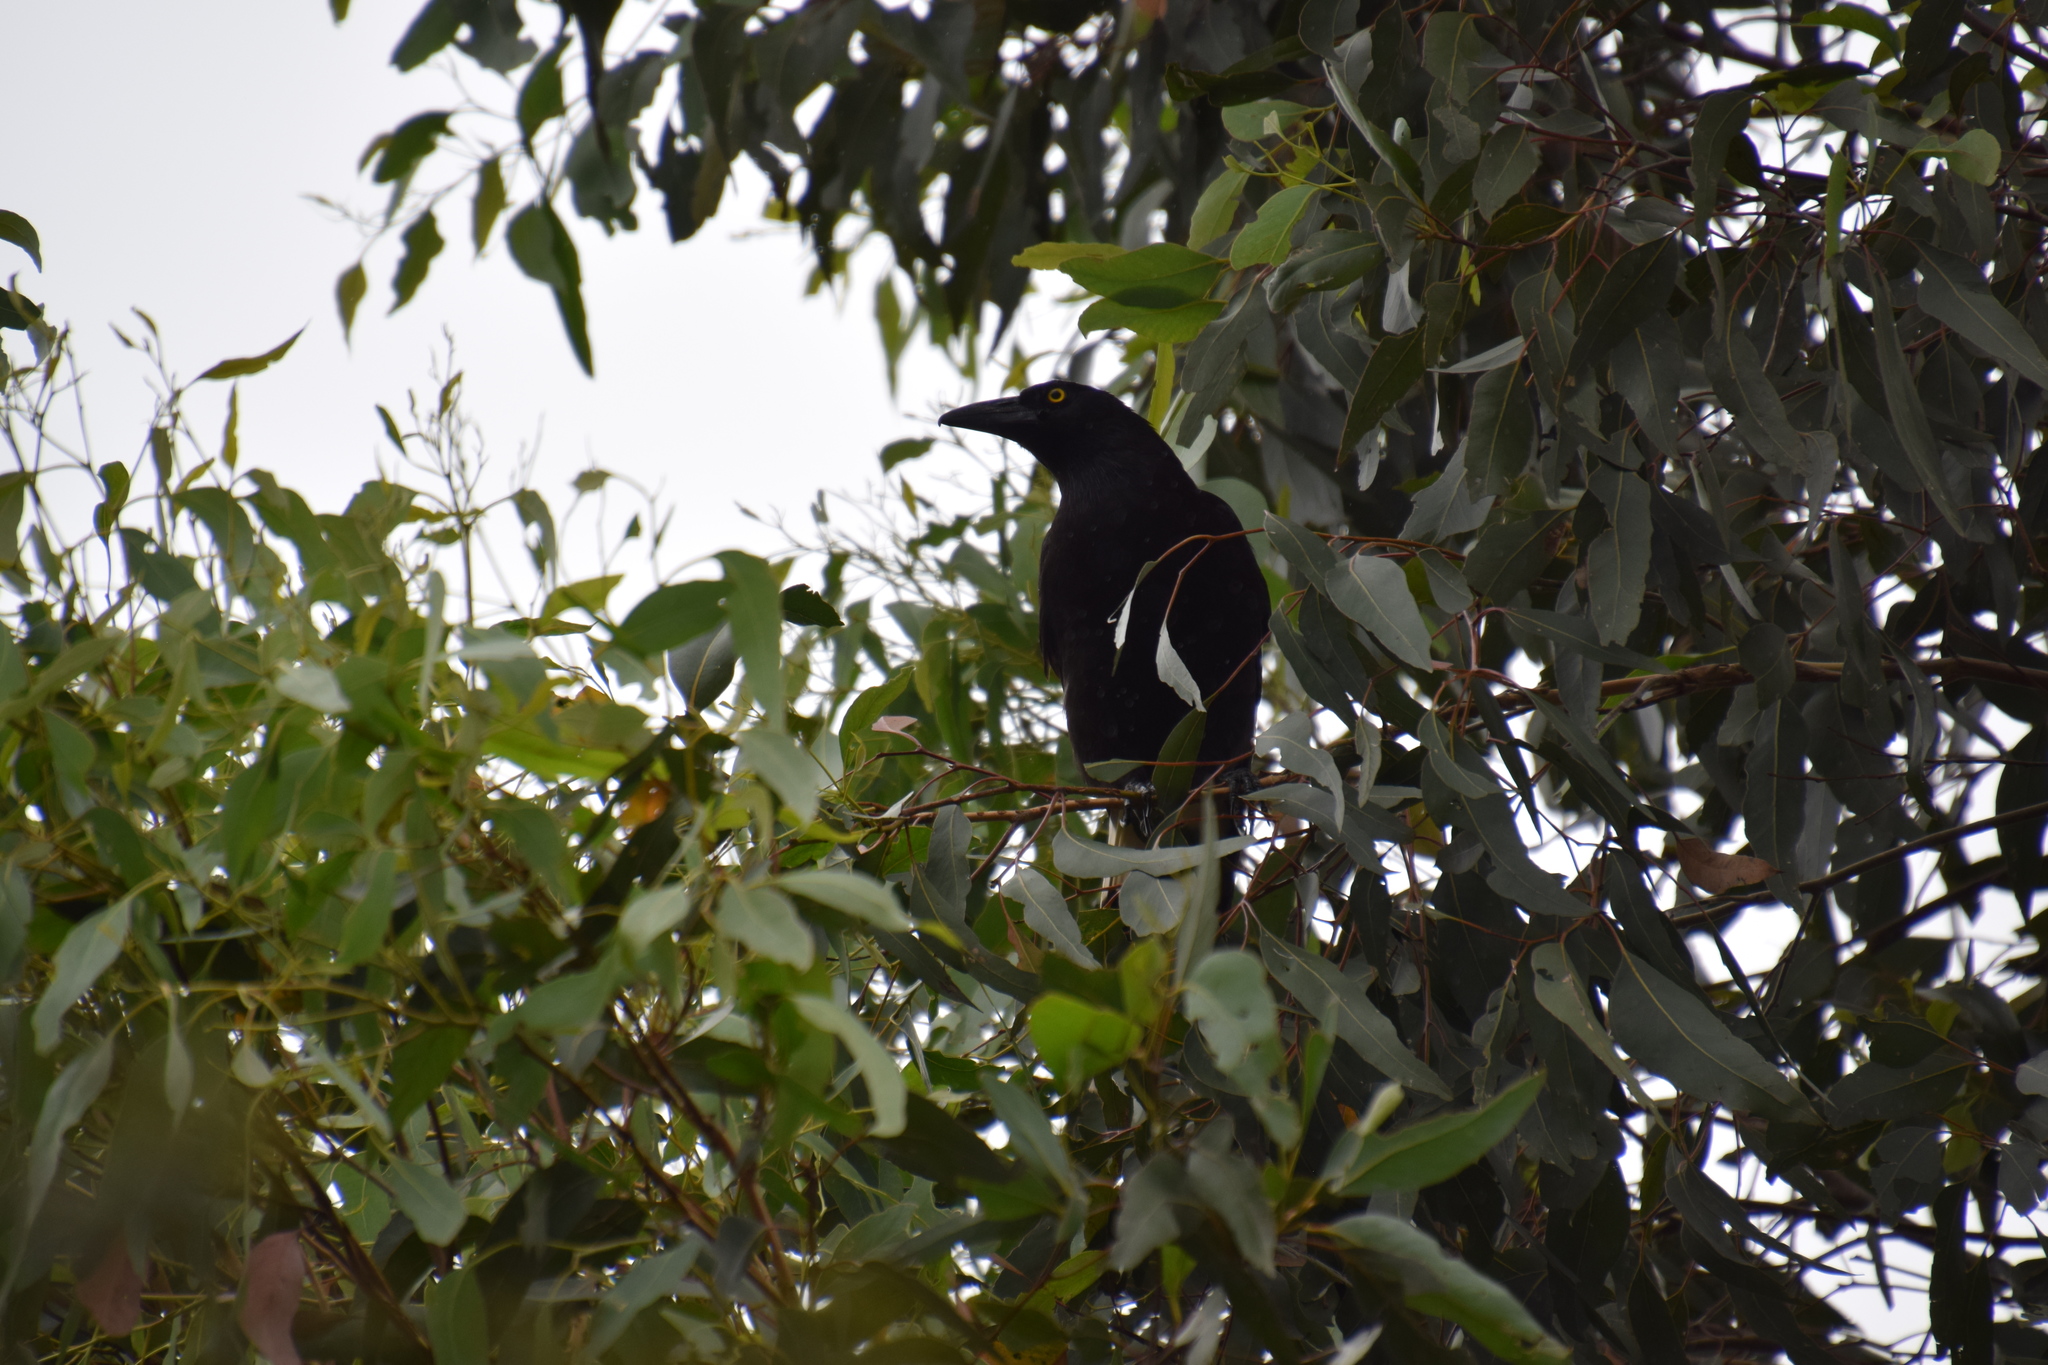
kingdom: Animalia
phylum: Chordata
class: Aves
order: Passeriformes
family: Cracticidae
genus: Strepera
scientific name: Strepera graculina
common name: Pied currawong
